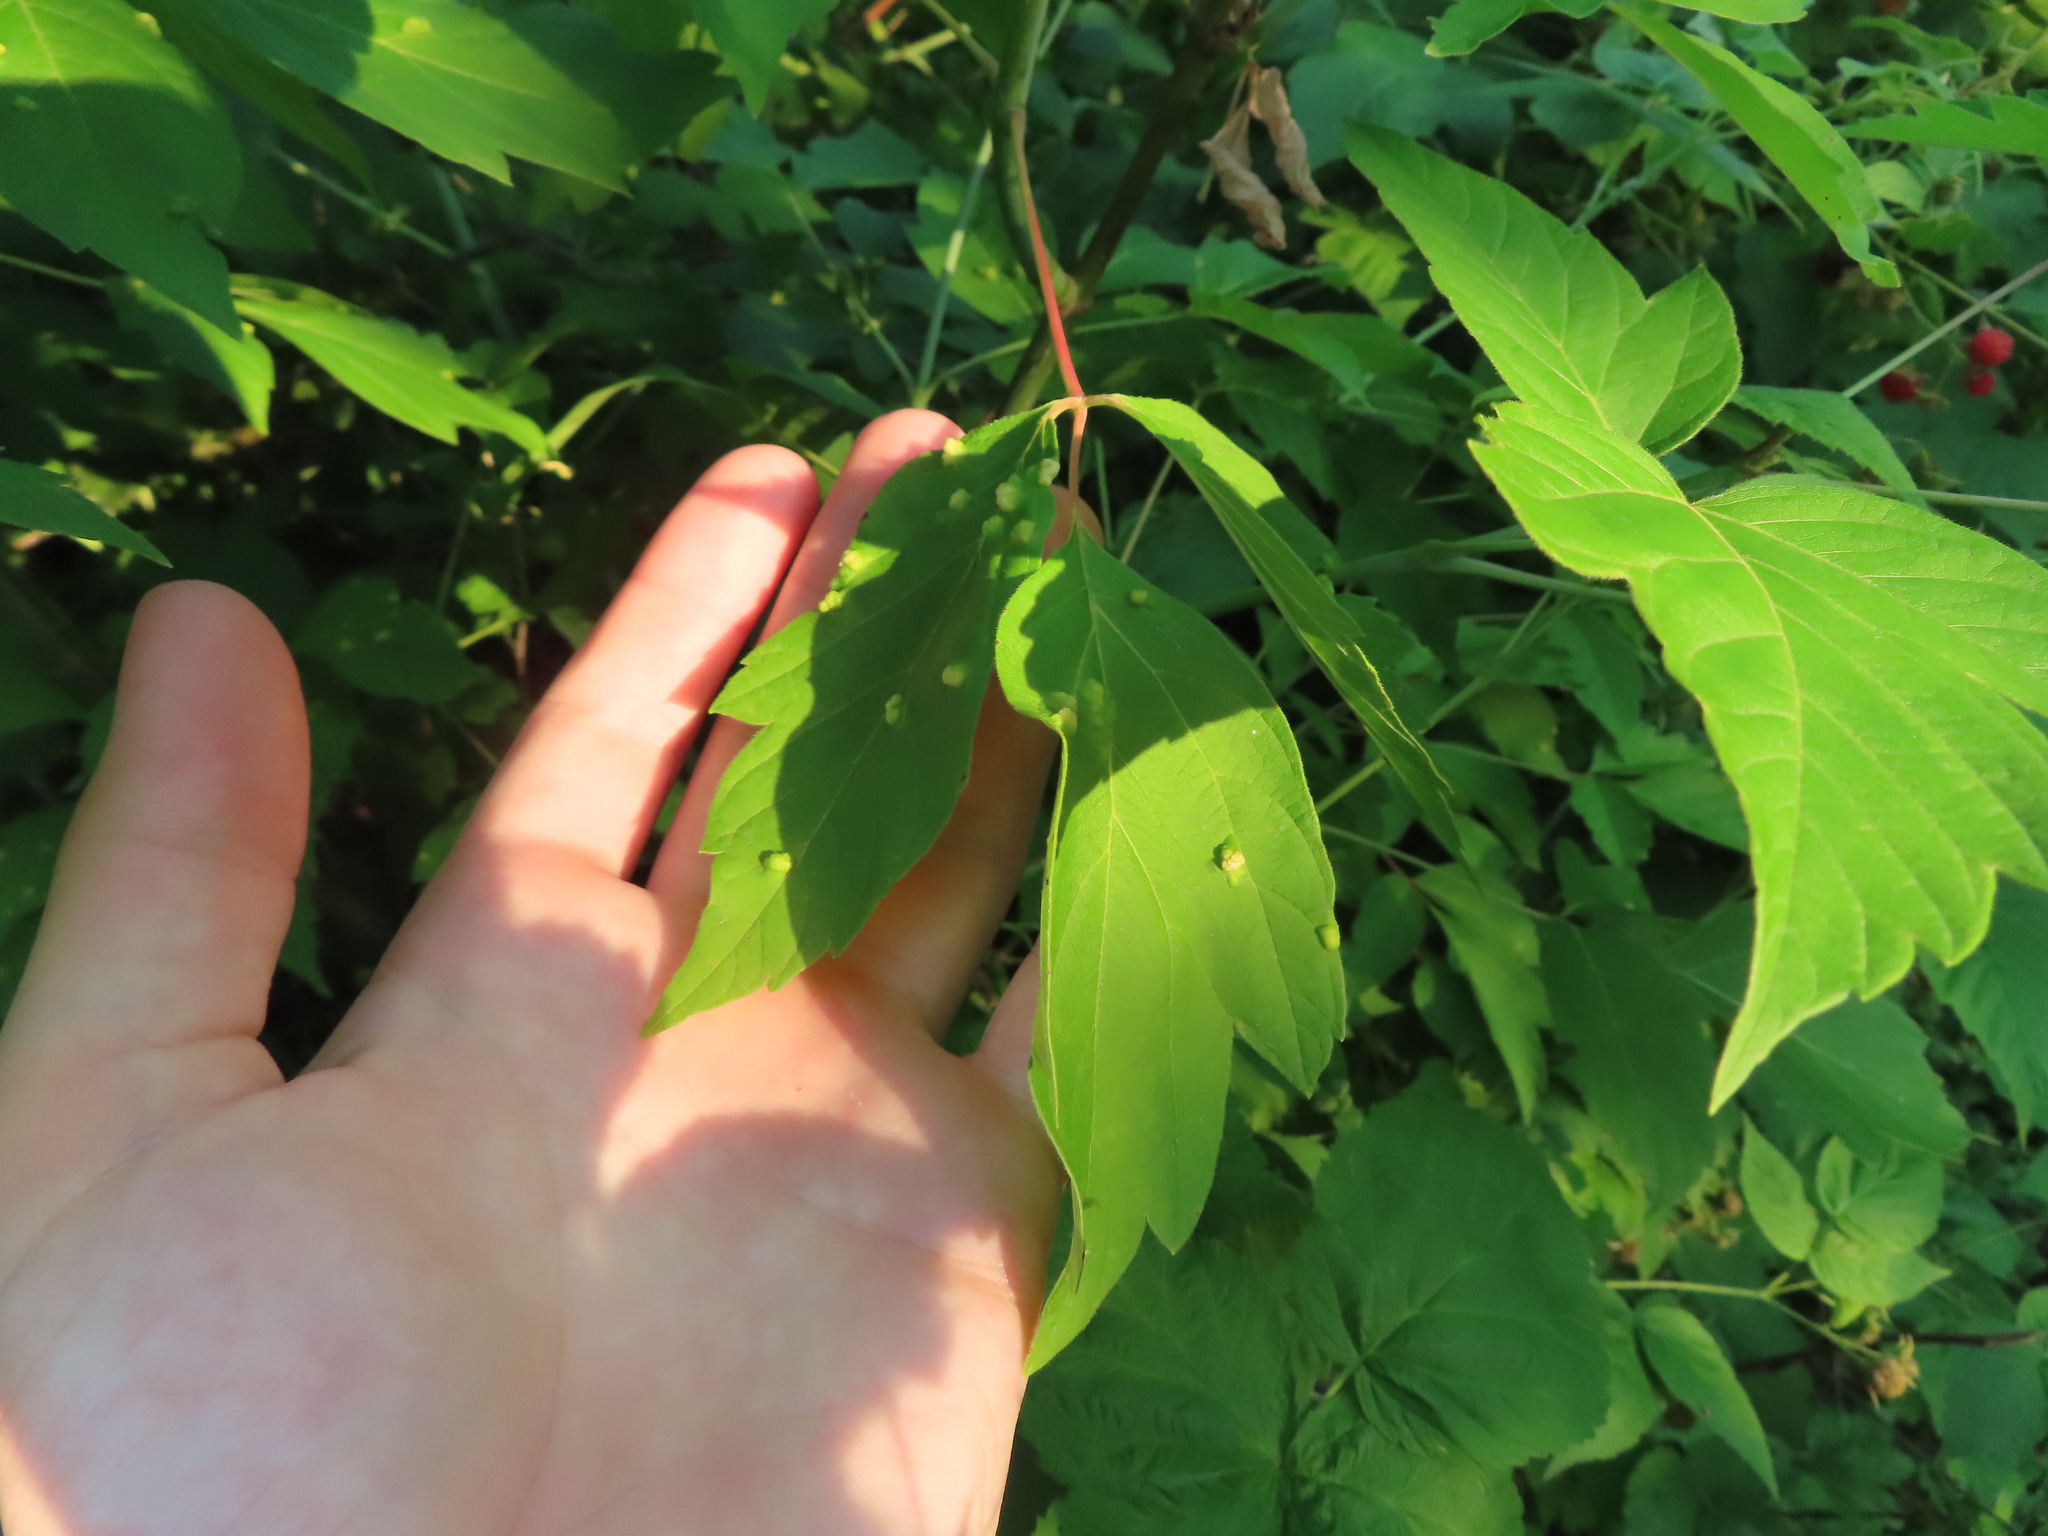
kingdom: Plantae
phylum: Tracheophyta
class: Magnoliopsida
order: Sapindales
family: Sapindaceae
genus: Acer
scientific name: Acer negundo
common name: Ashleaf maple
